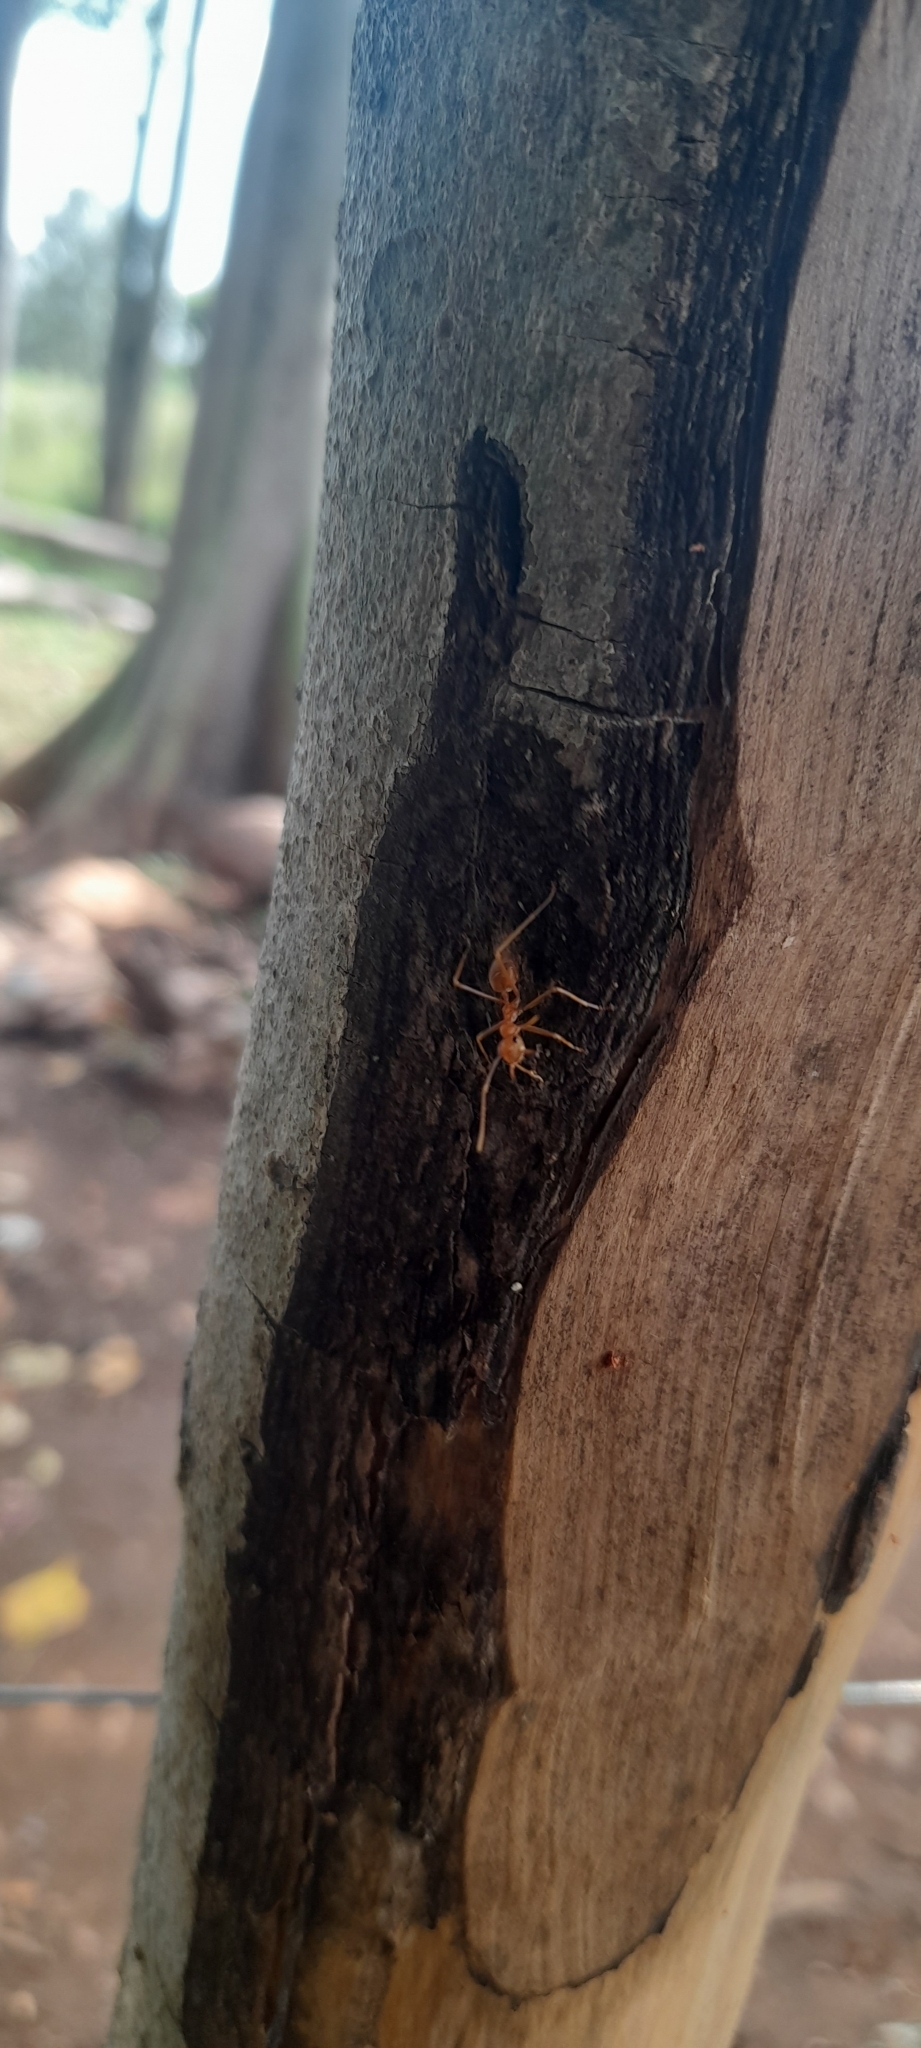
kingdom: Animalia
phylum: Arthropoda
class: Insecta
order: Hymenoptera
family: Formicidae
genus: Oecophylla
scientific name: Oecophylla smaragdina
